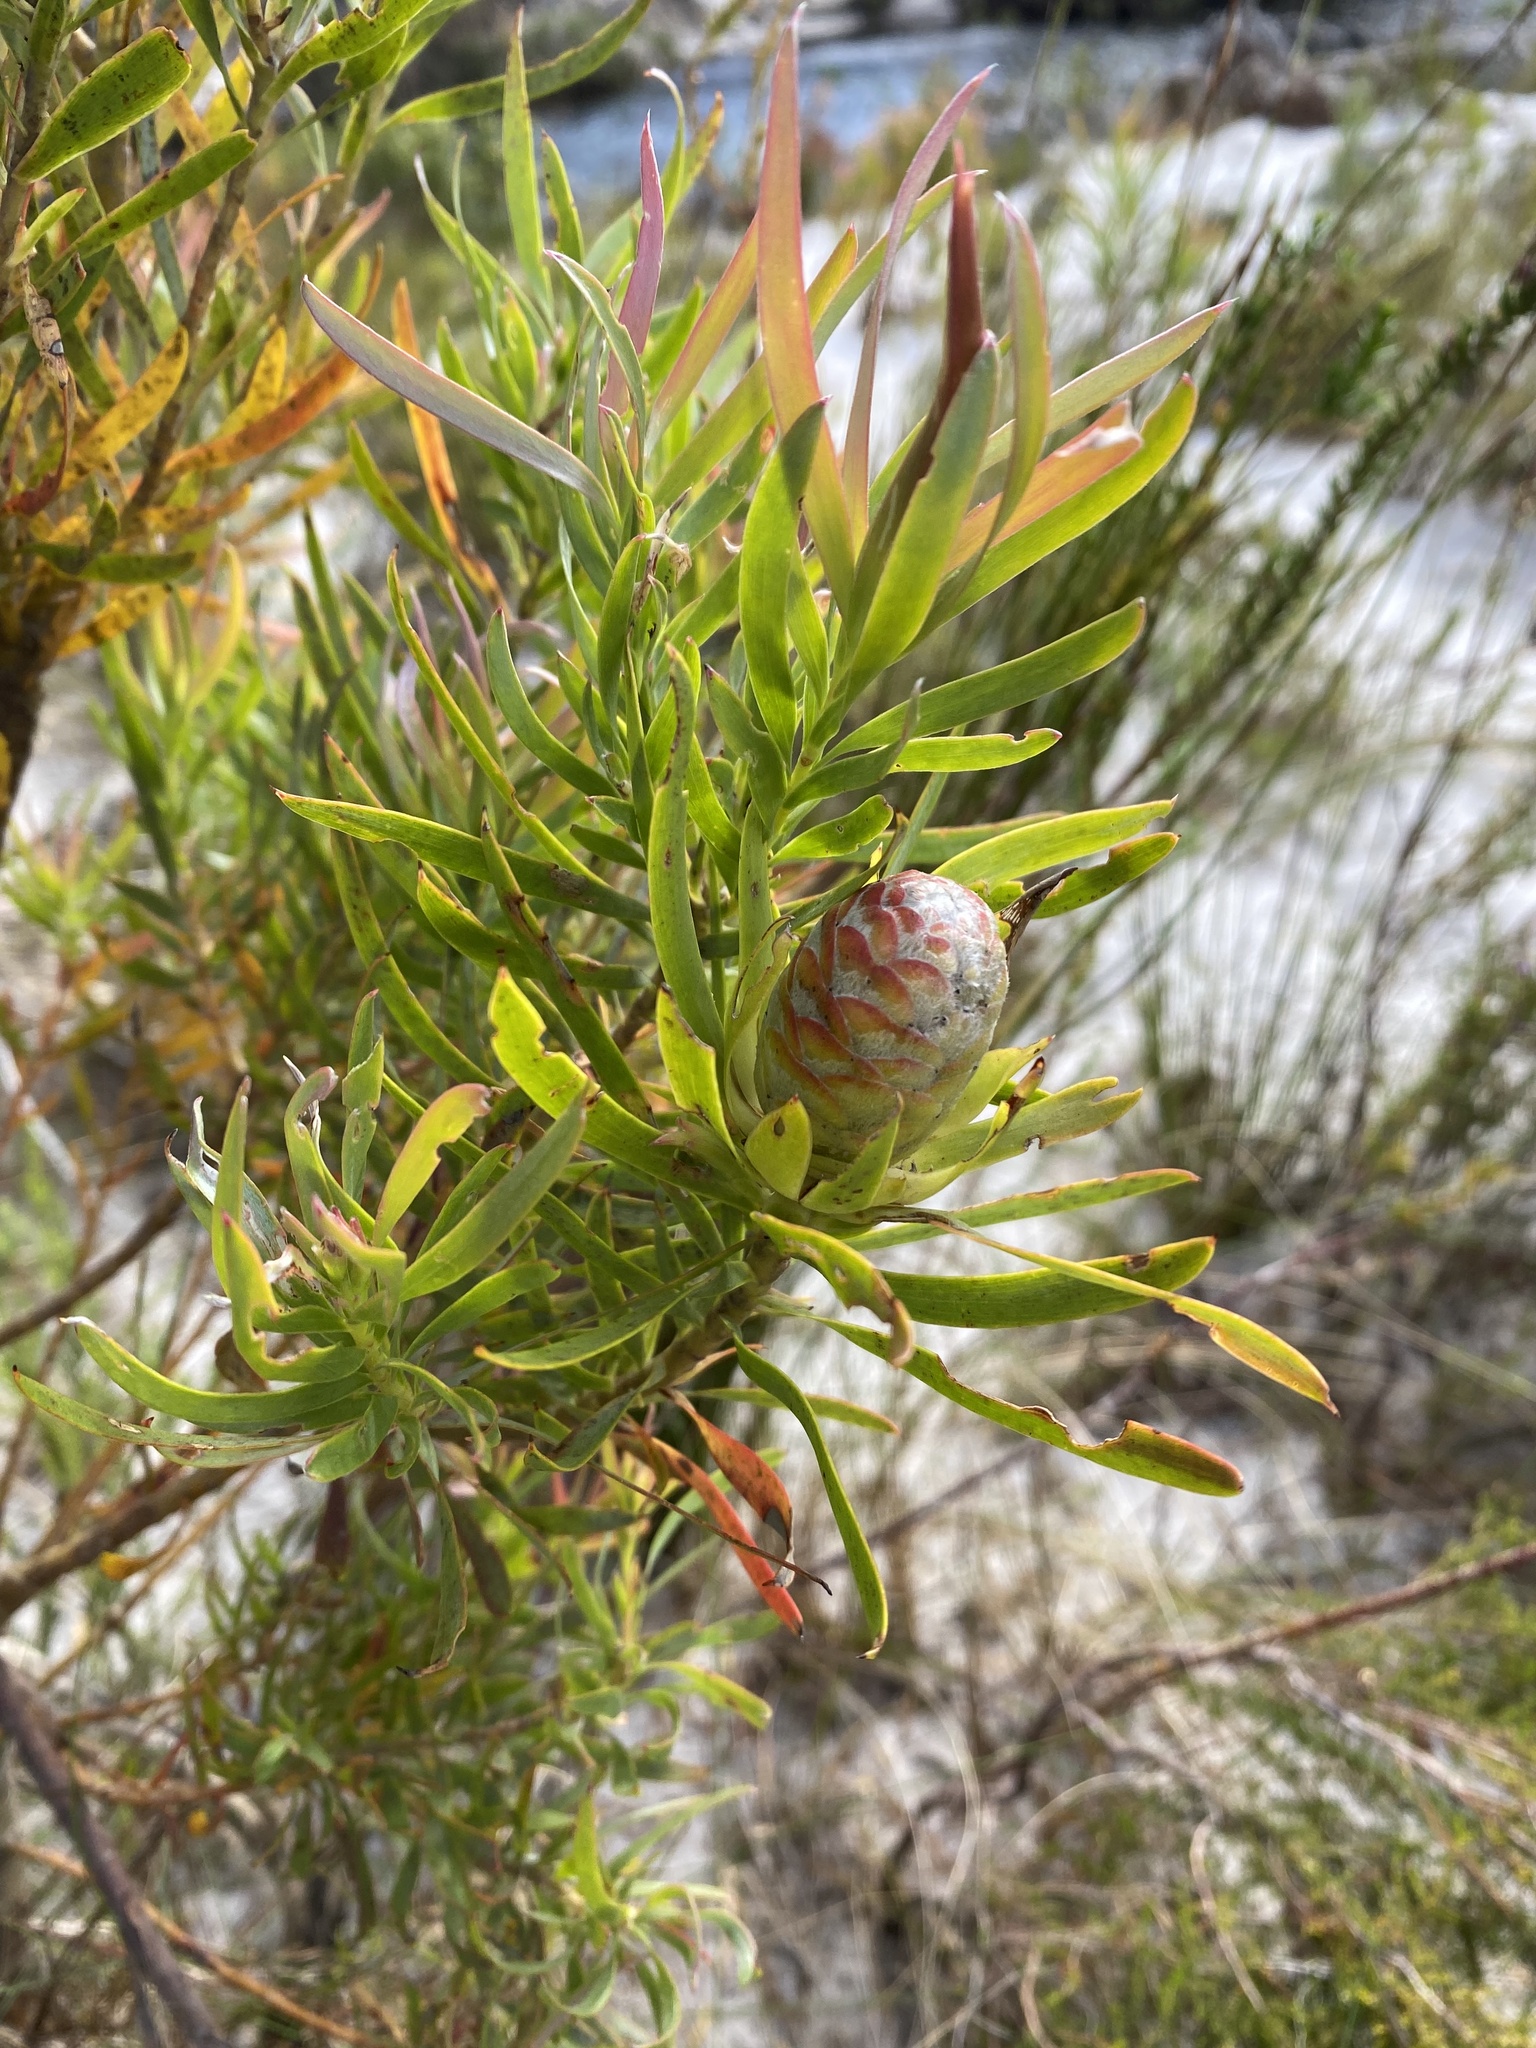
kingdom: Plantae
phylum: Tracheophyta
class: Magnoliopsida
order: Proteales
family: Proteaceae
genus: Leucadendron
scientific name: Leucadendron xanthoconus
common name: Sickle-leaf conebush
